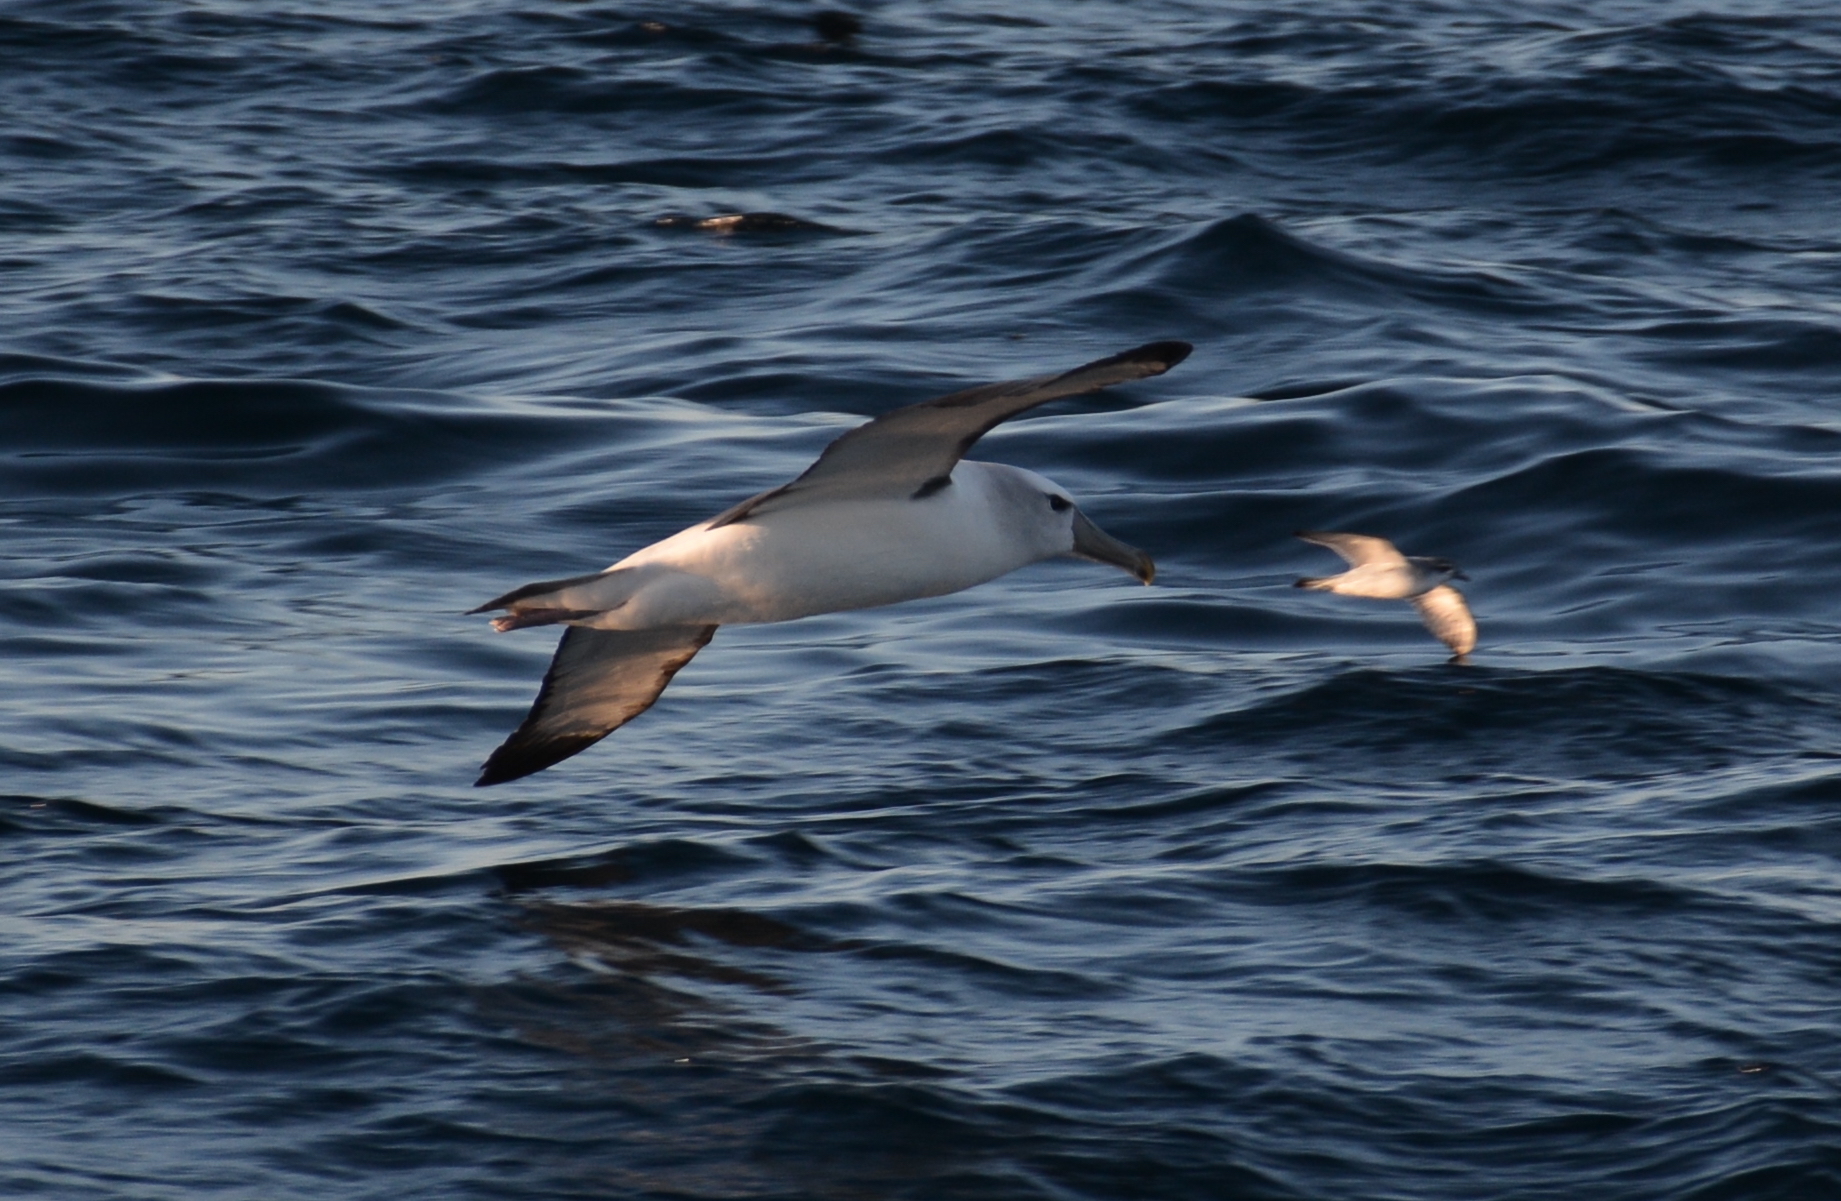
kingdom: Animalia
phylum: Chordata
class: Aves
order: Procellariiformes
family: Diomedeidae
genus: Thalassarche
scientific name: Thalassarche cauta
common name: Shy albatross
